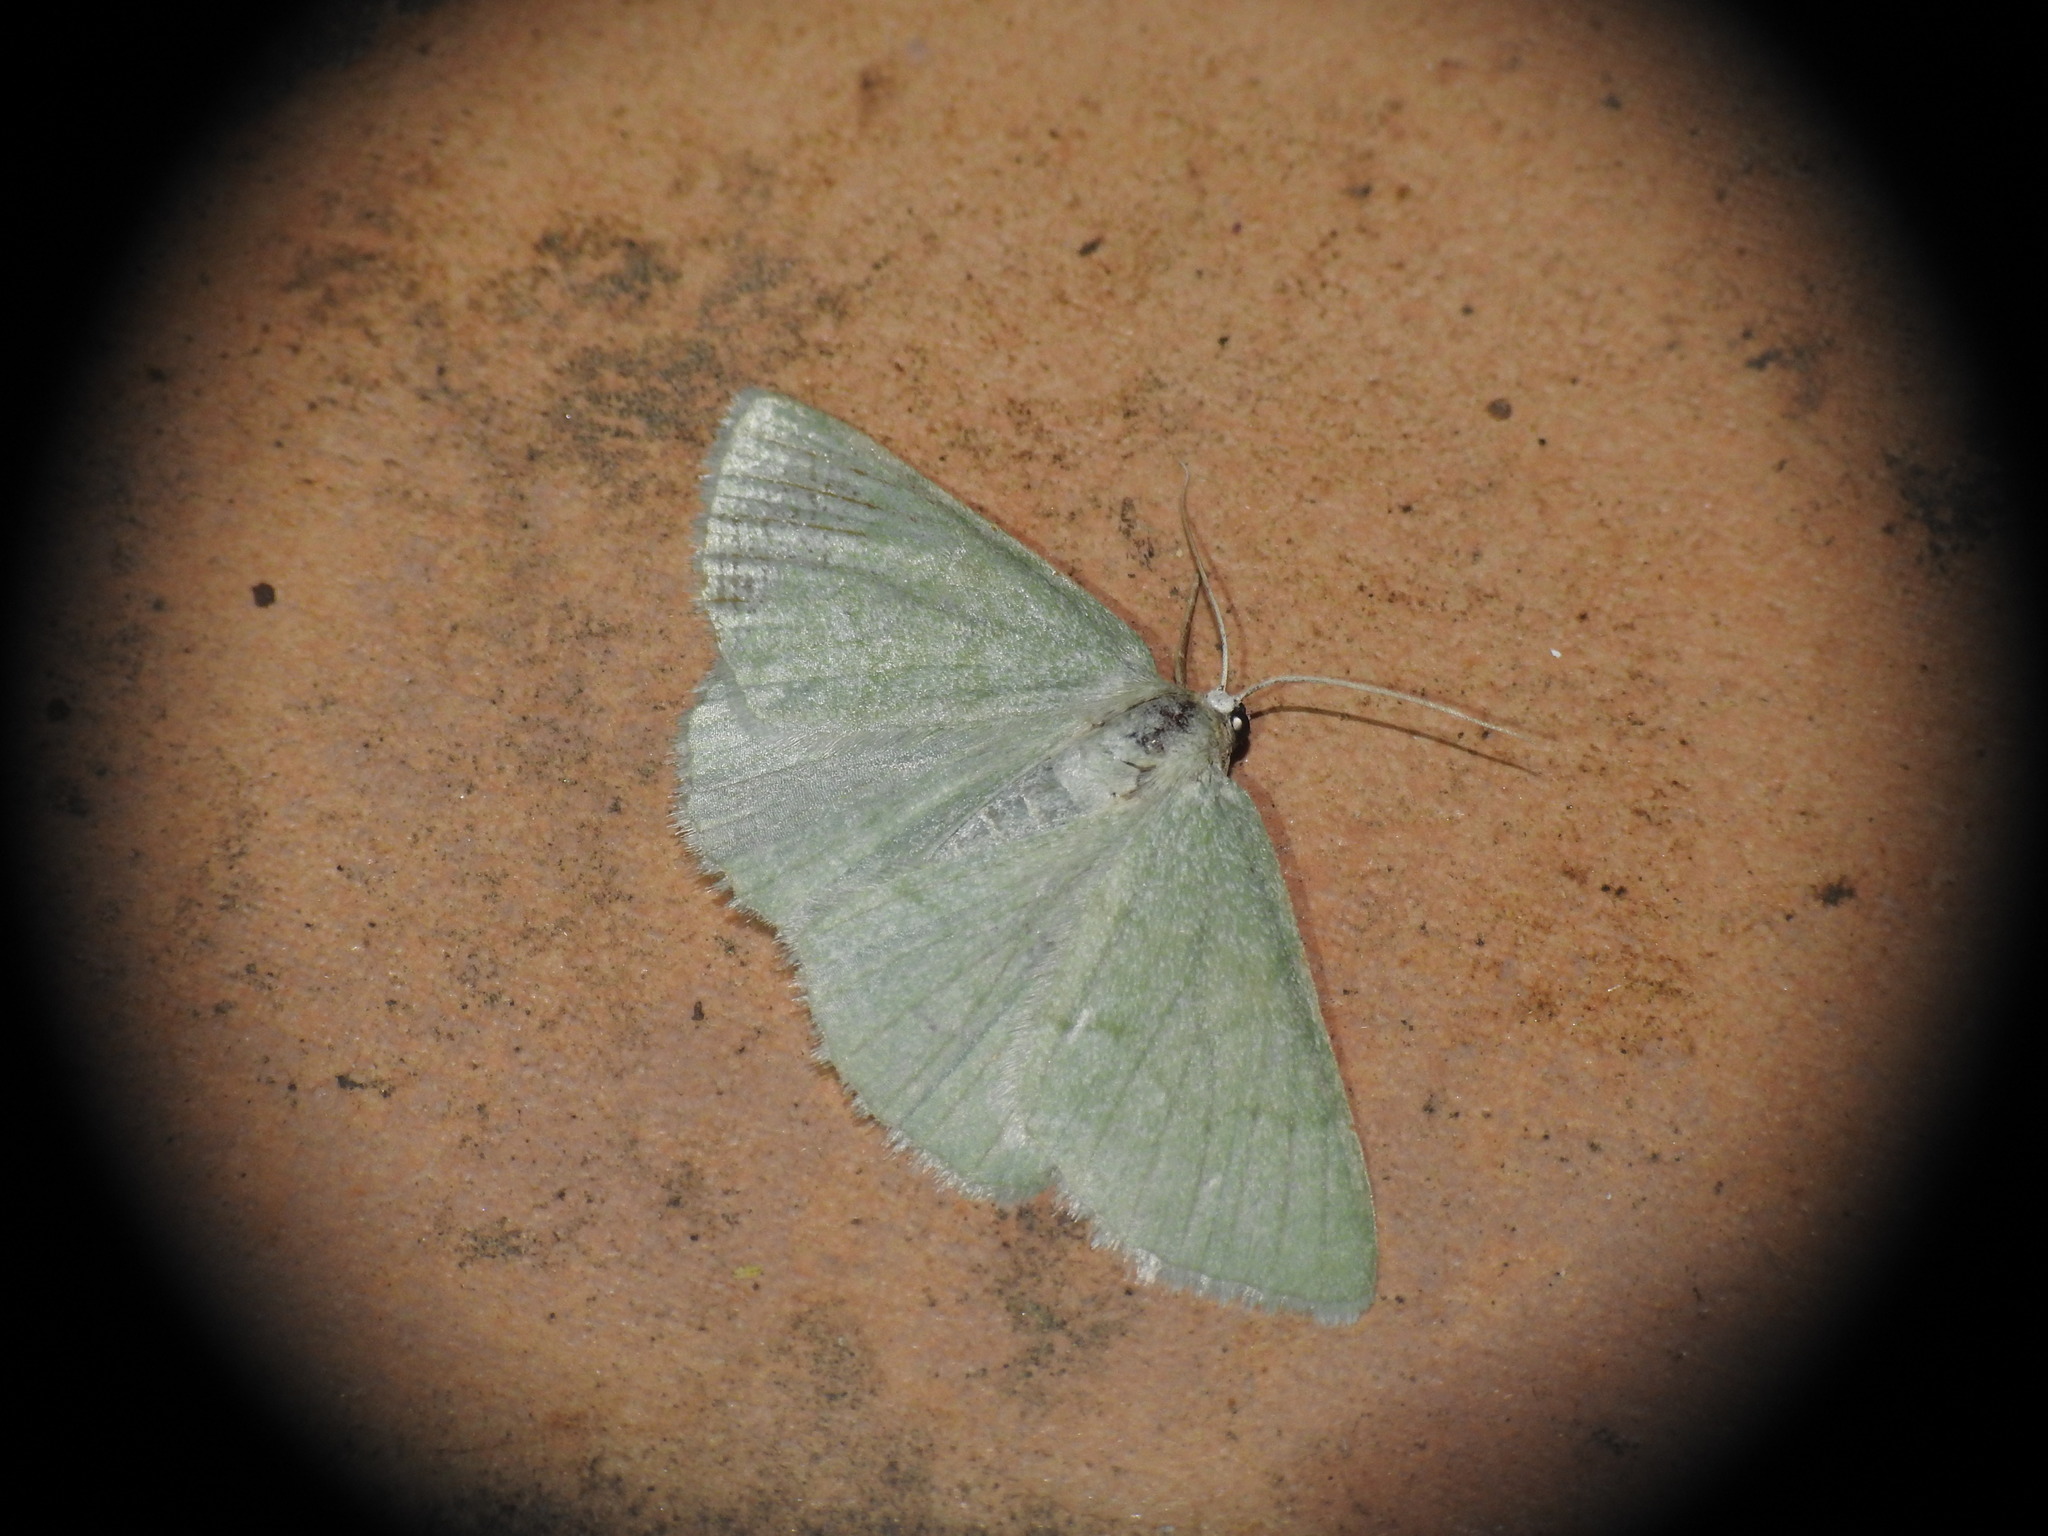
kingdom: Animalia
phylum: Arthropoda
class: Insecta
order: Lepidoptera
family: Geometridae
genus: Pseudoterpna
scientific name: Pseudoterpna pruinata
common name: Grass emerald
